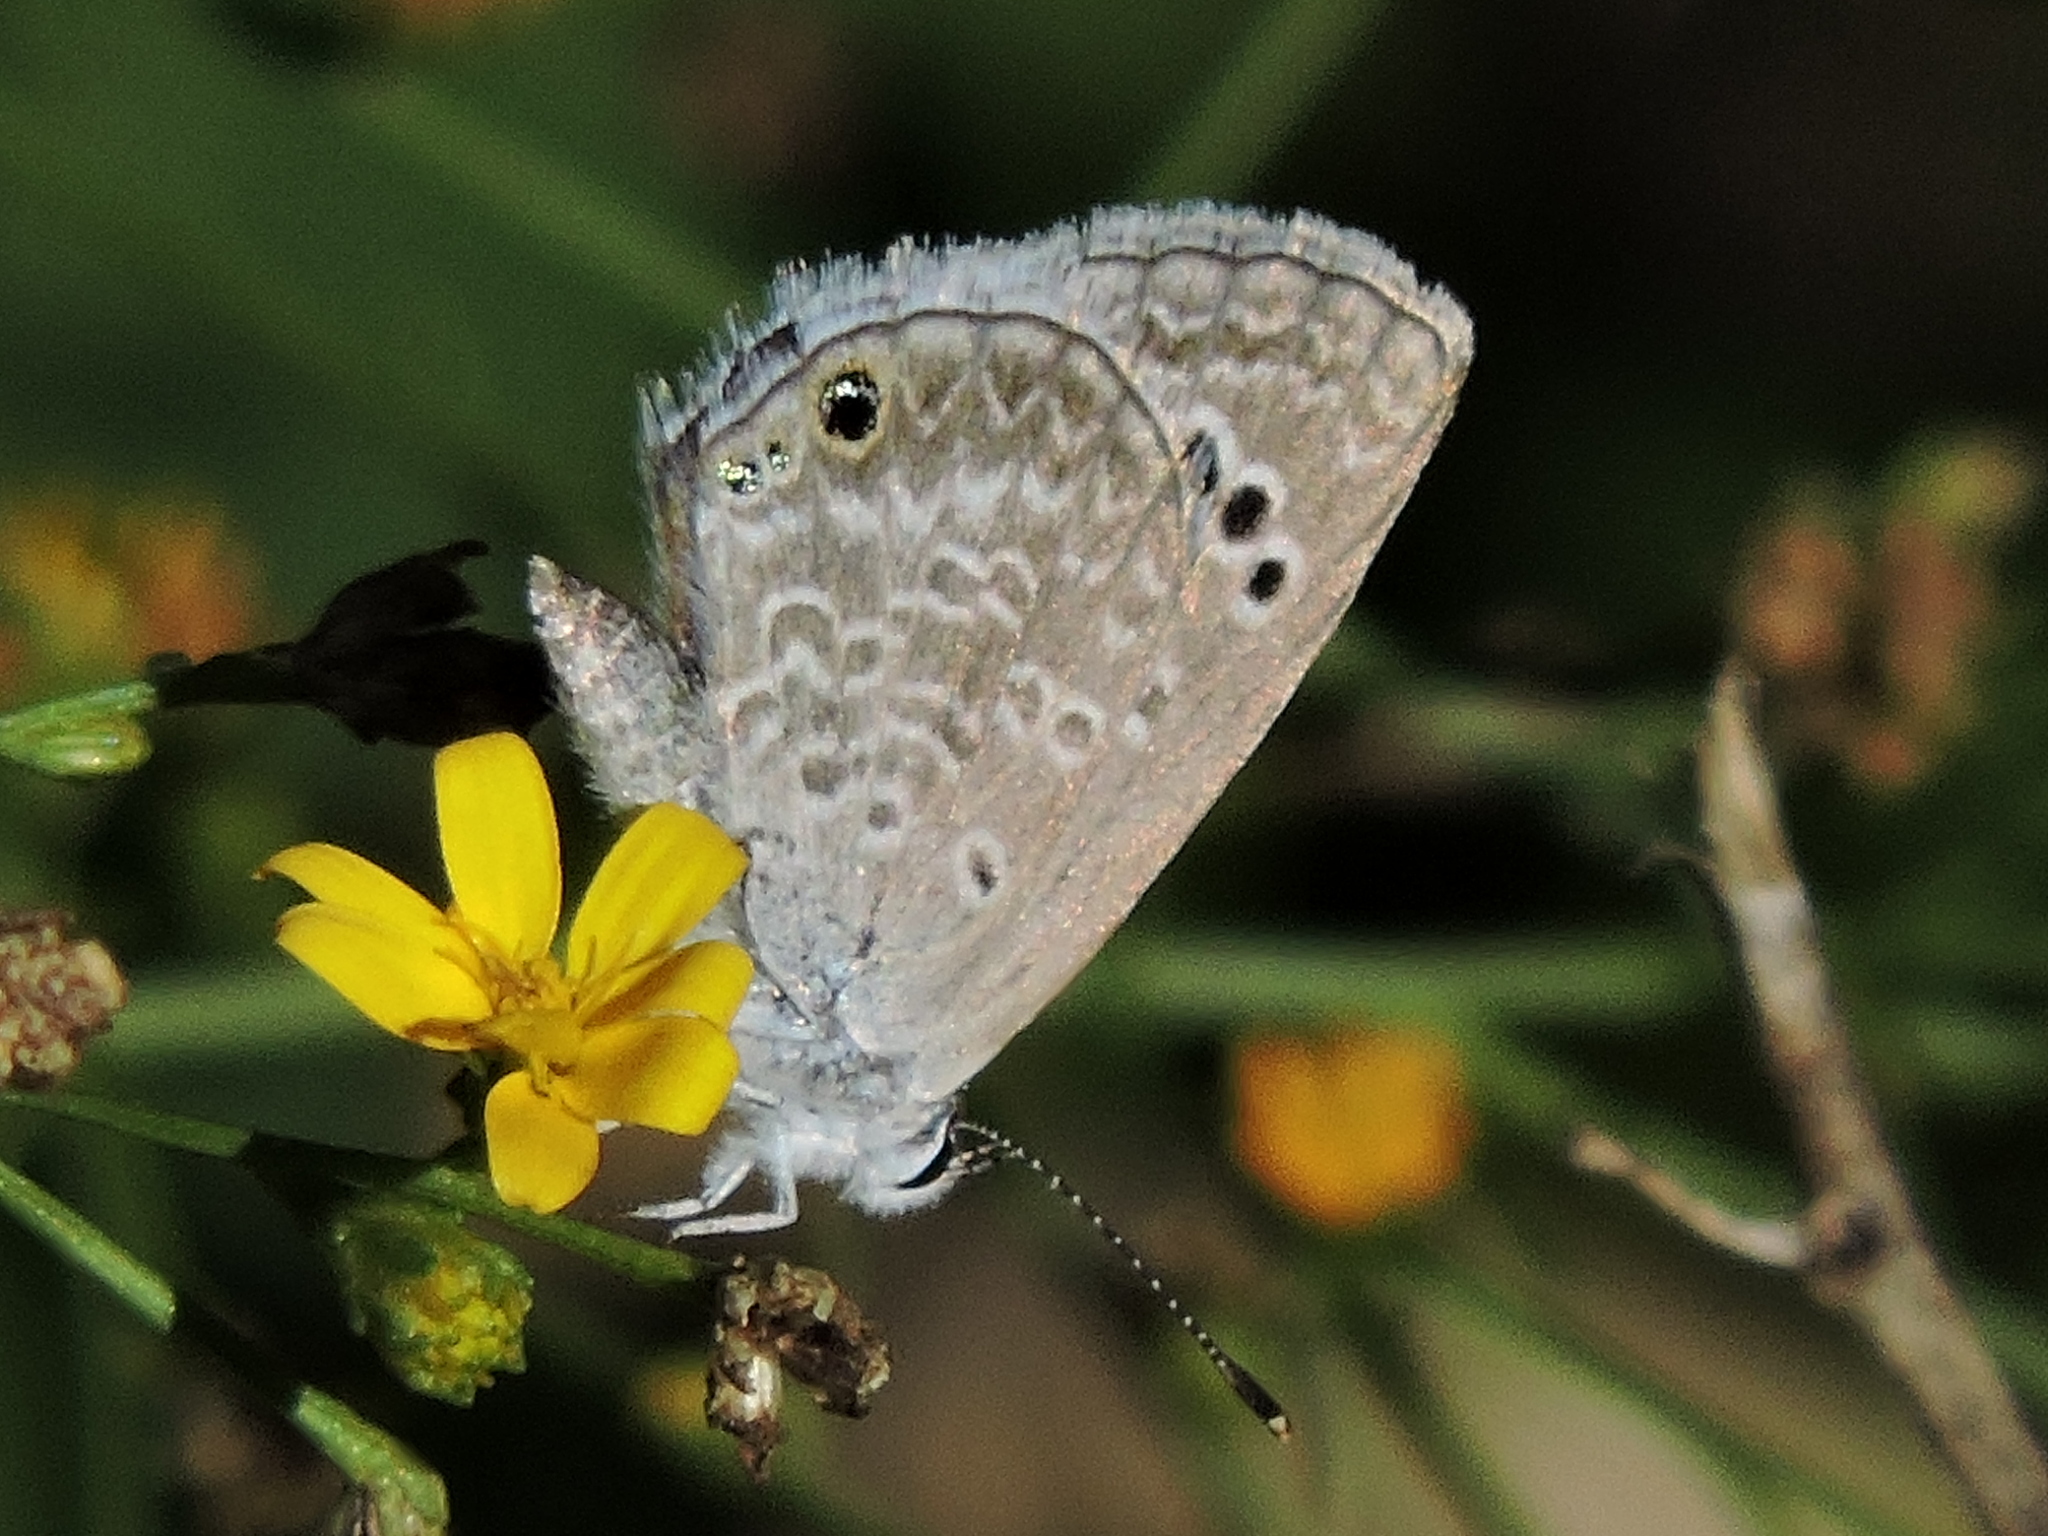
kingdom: Animalia
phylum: Arthropoda
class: Insecta
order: Lepidoptera
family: Lycaenidae
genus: Echinargus
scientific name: Echinargus isola
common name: Reakirt's blue
